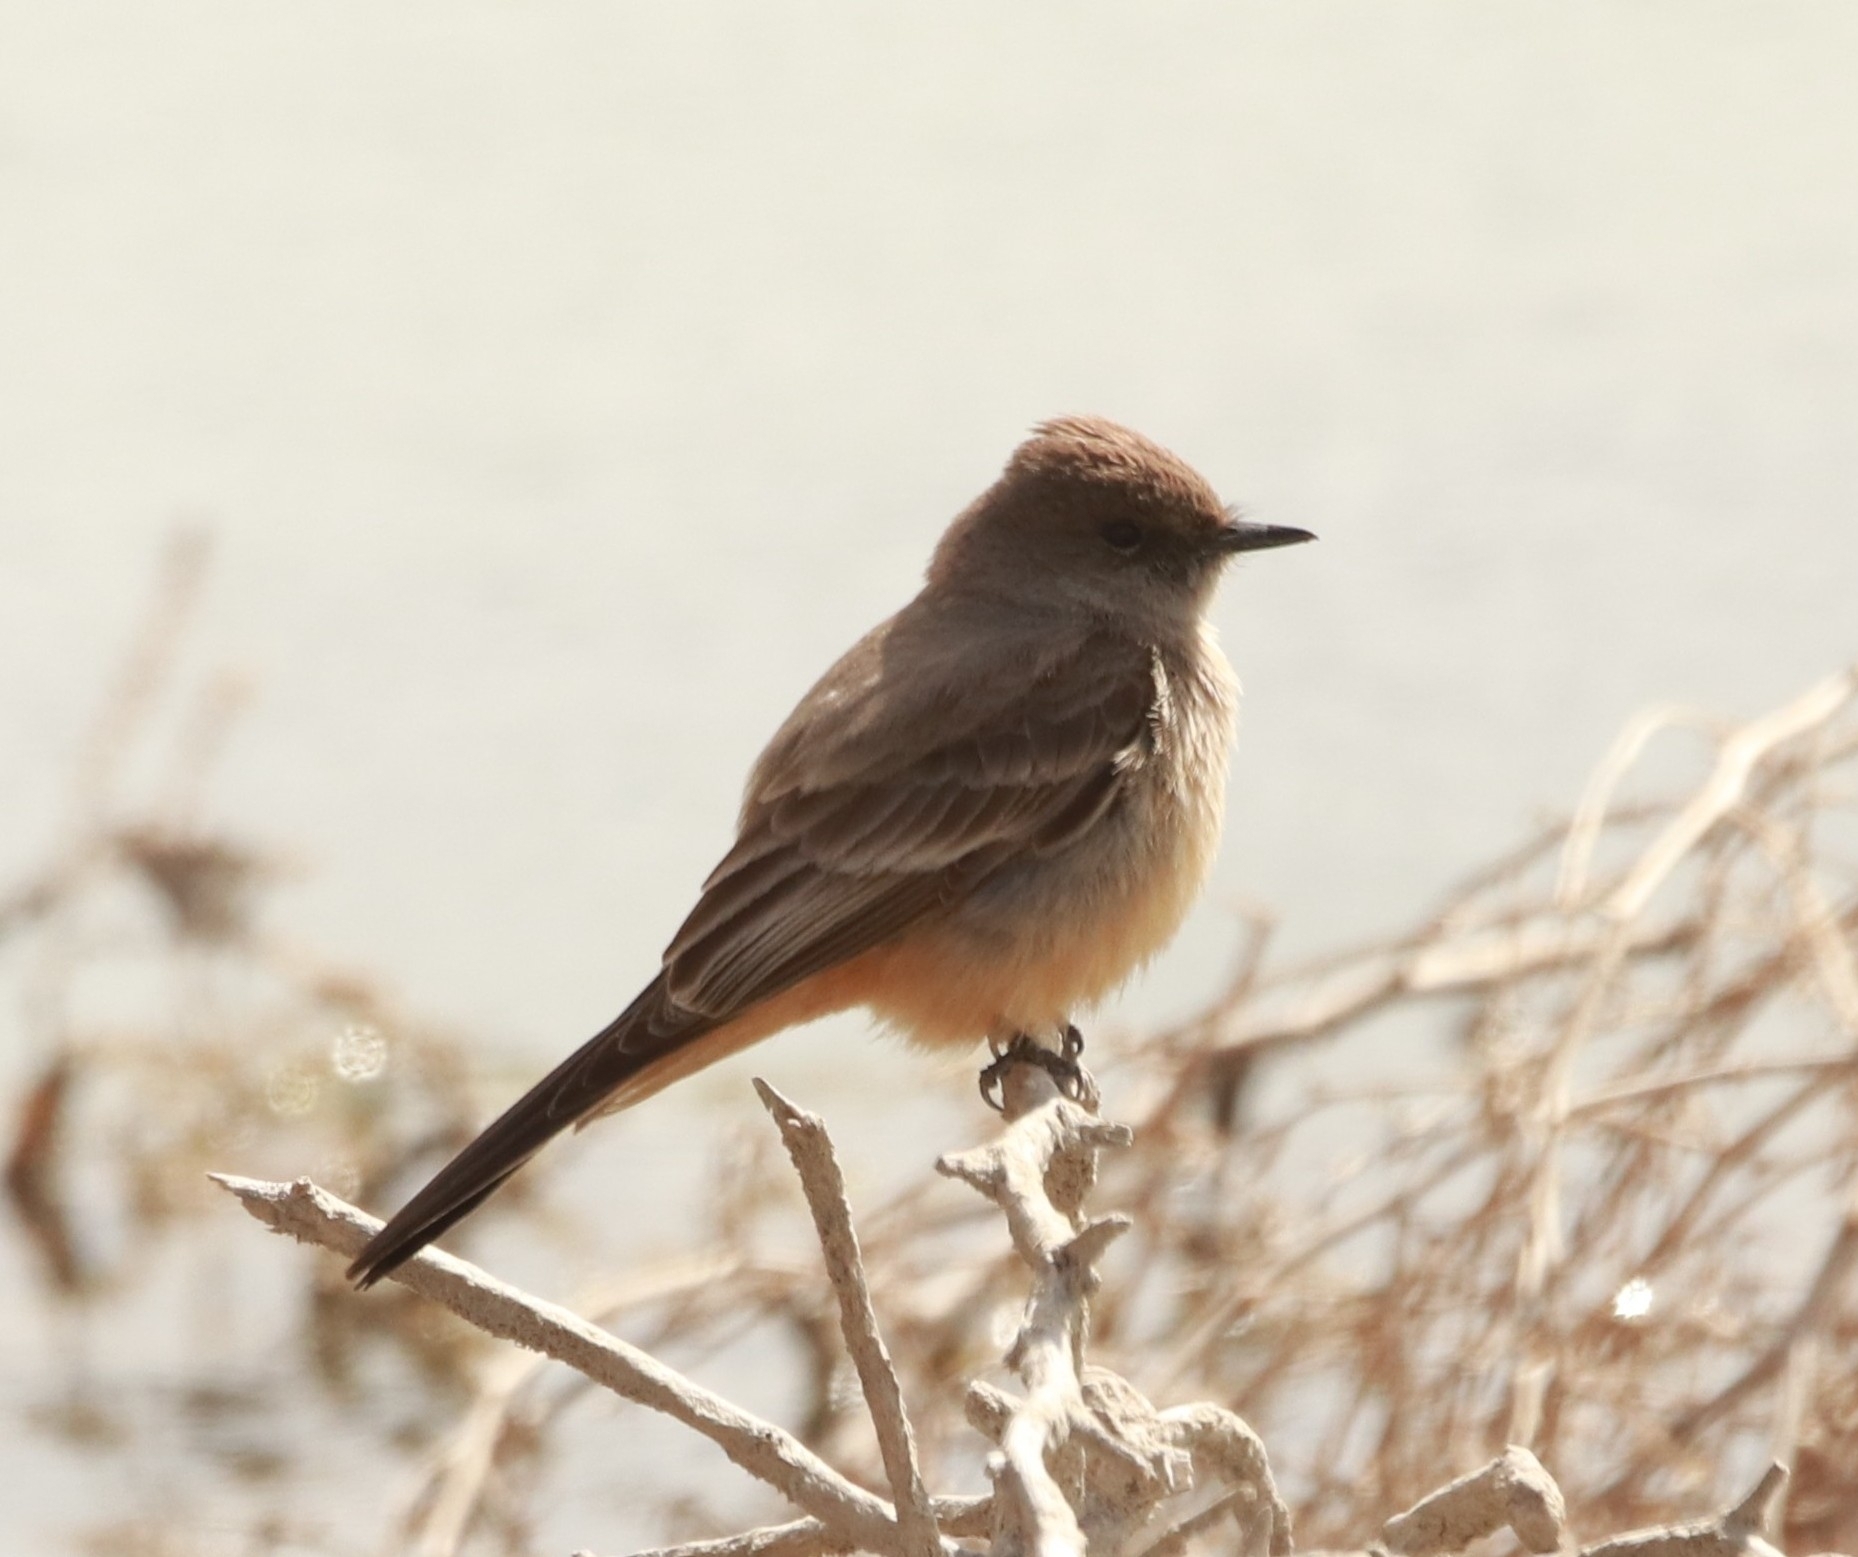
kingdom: Animalia
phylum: Chordata
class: Aves
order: Passeriformes
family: Tyrannidae
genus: Sayornis
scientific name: Sayornis saya
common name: Say's phoebe
